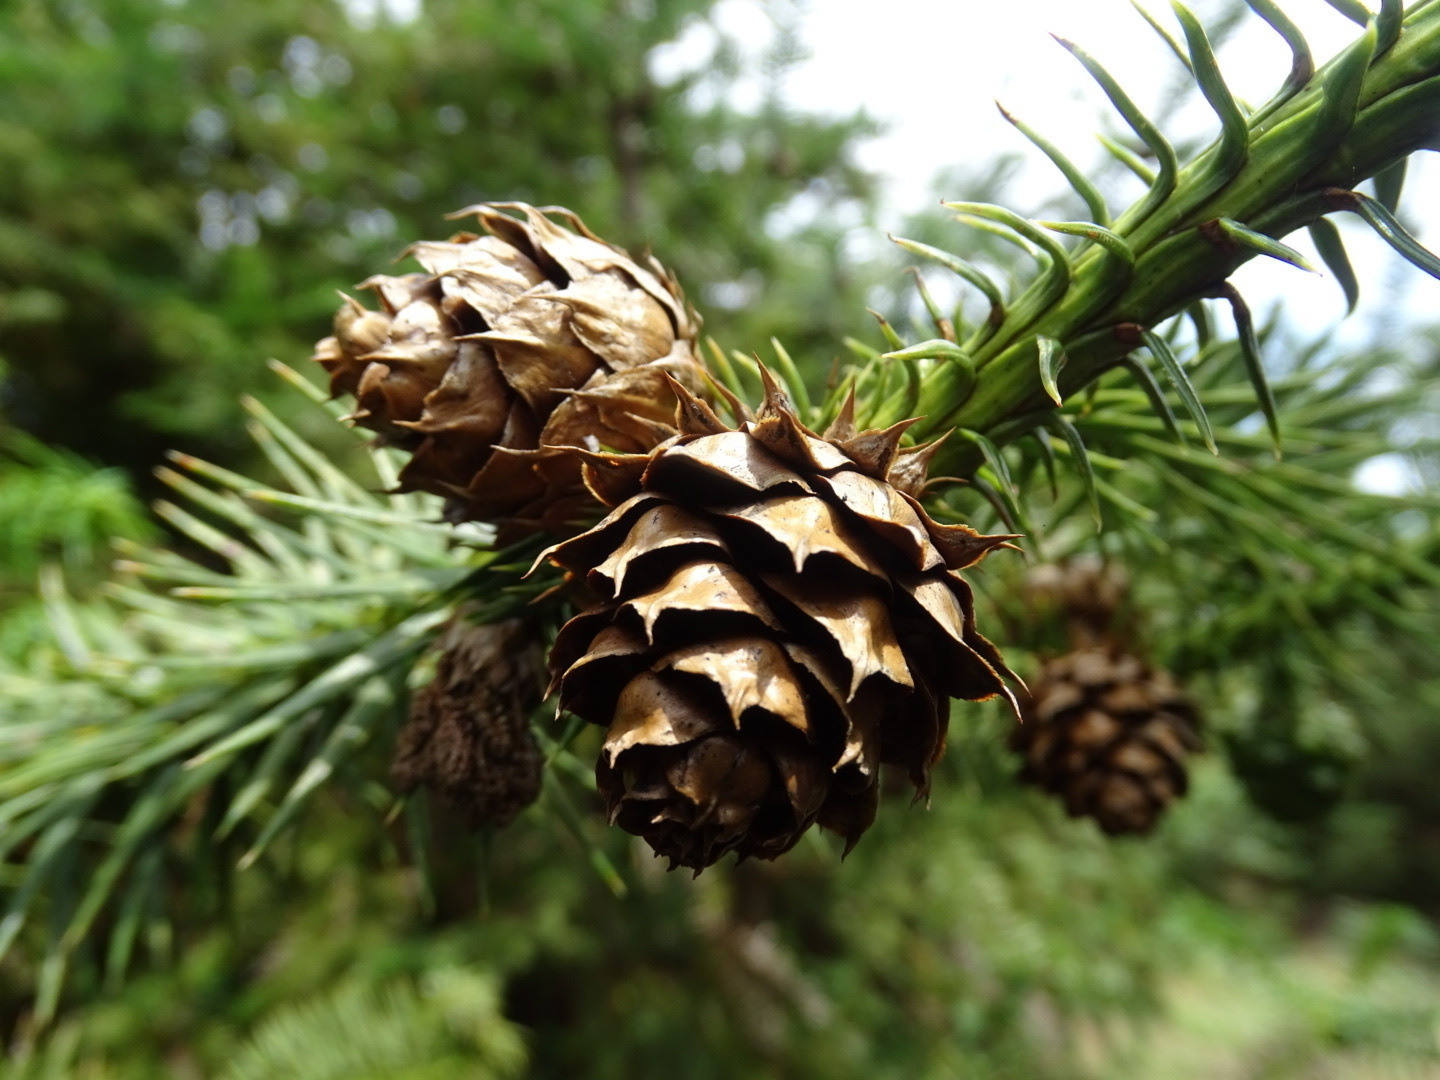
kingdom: Plantae
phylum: Tracheophyta
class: Pinopsida
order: Pinales
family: Cupressaceae
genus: Cunninghamia
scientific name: Cunninghamia lanceolata
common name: Chinese fir
